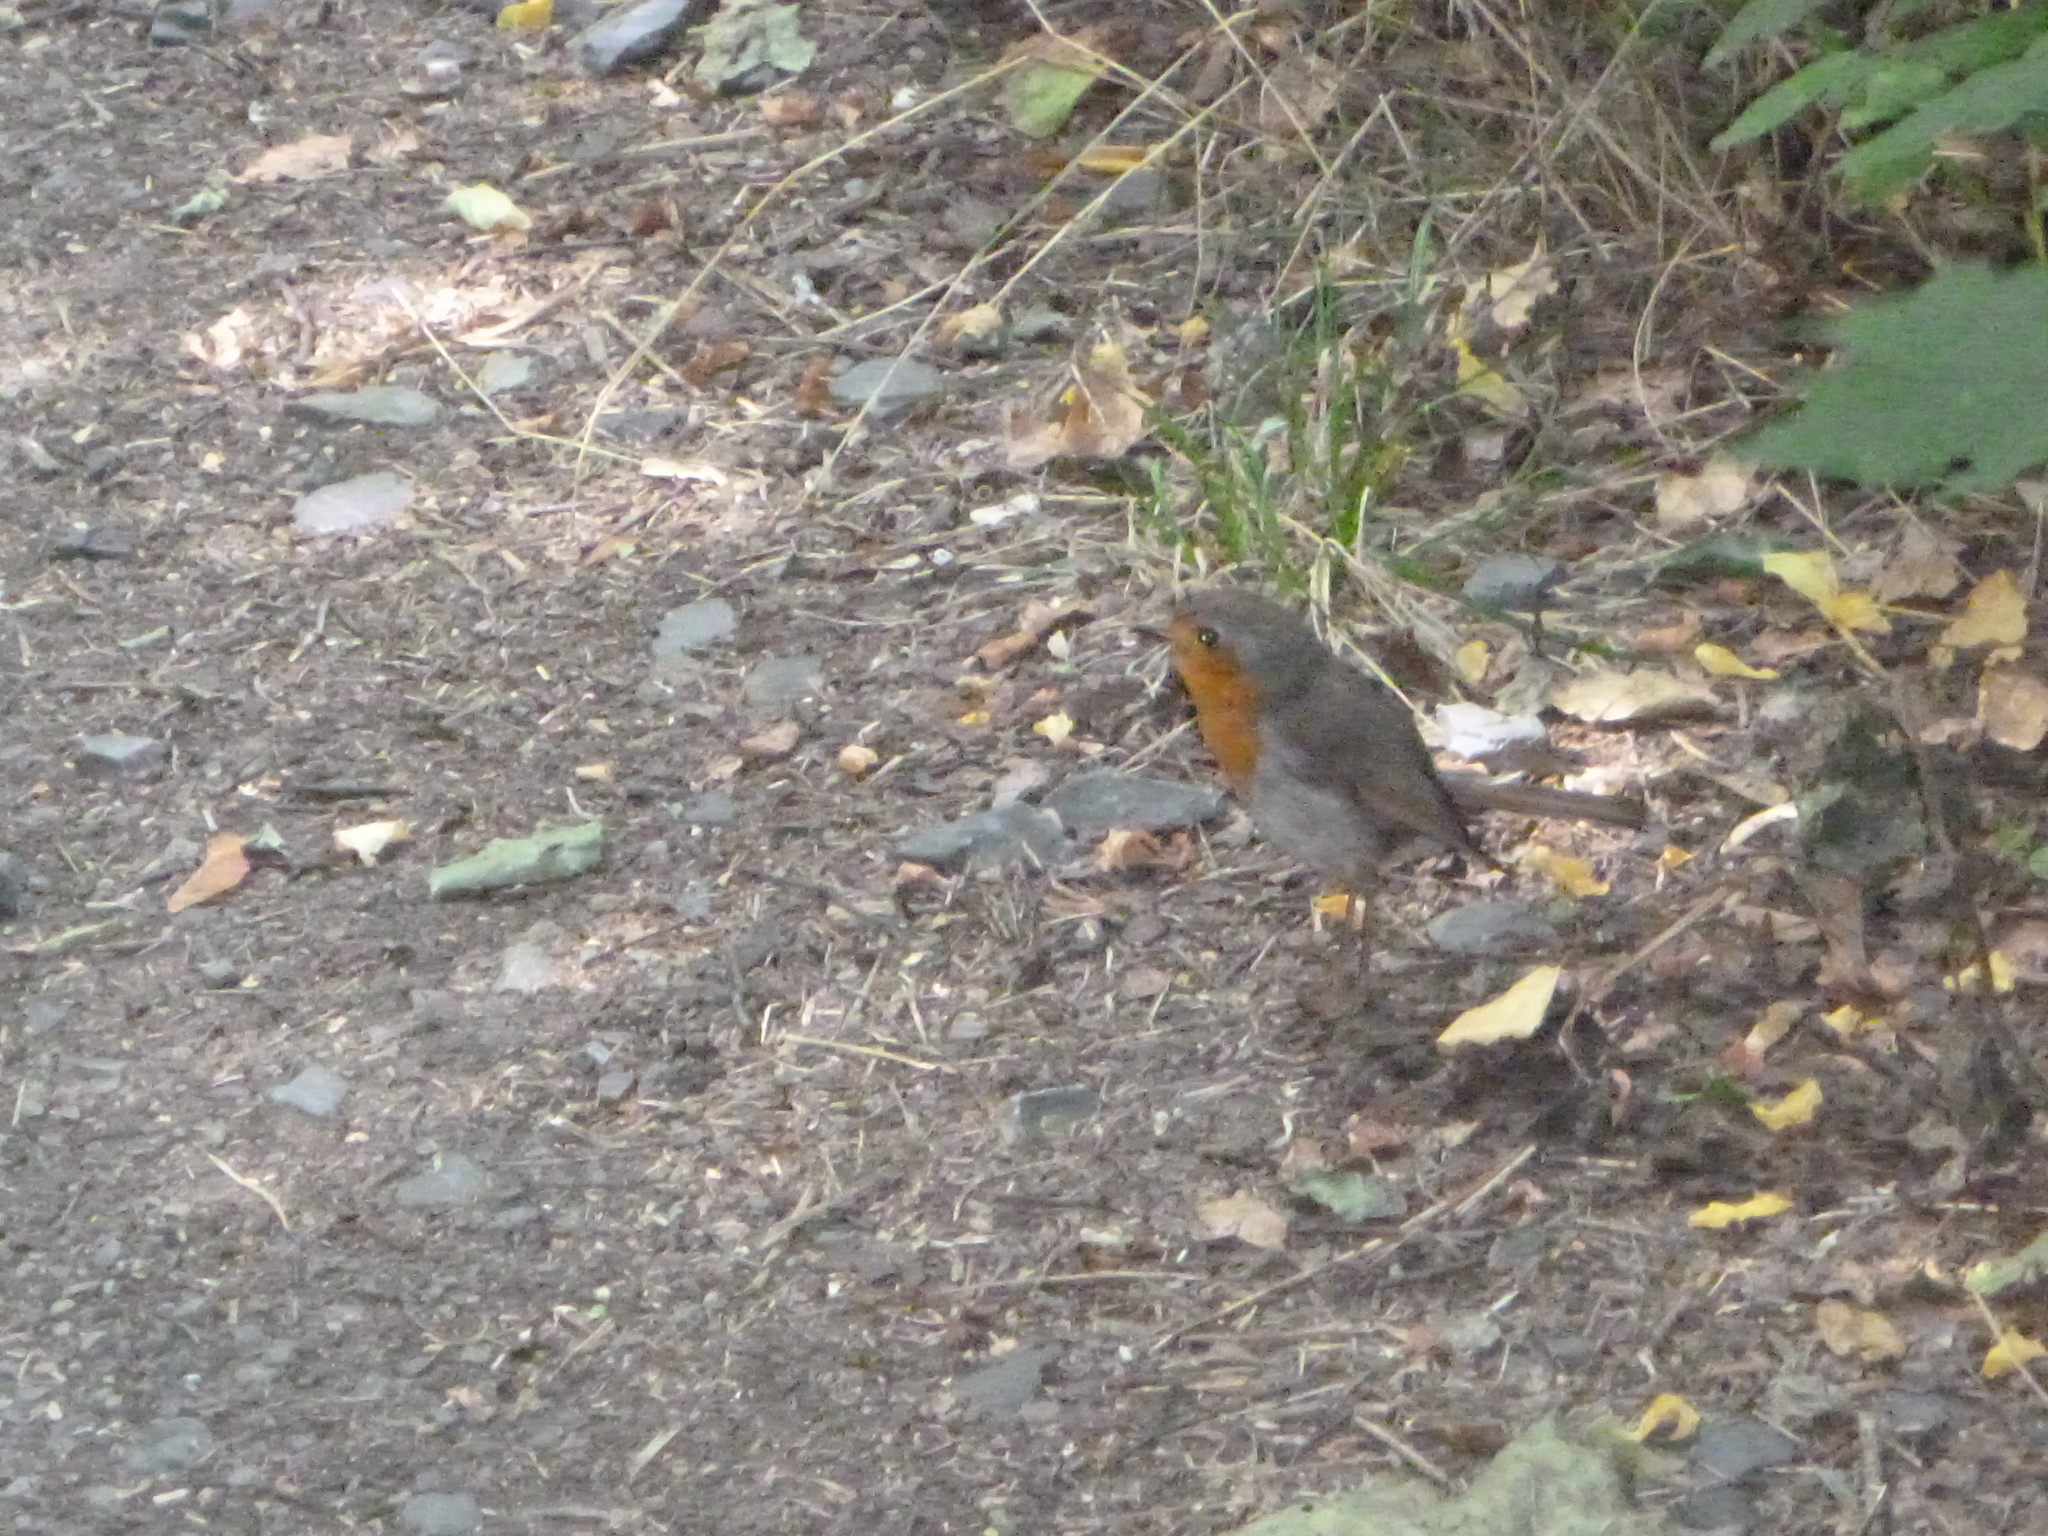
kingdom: Animalia
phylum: Chordata
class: Aves
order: Passeriformes
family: Muscicapidae
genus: Erithacus
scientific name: Erithacus rubecula
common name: European robin
